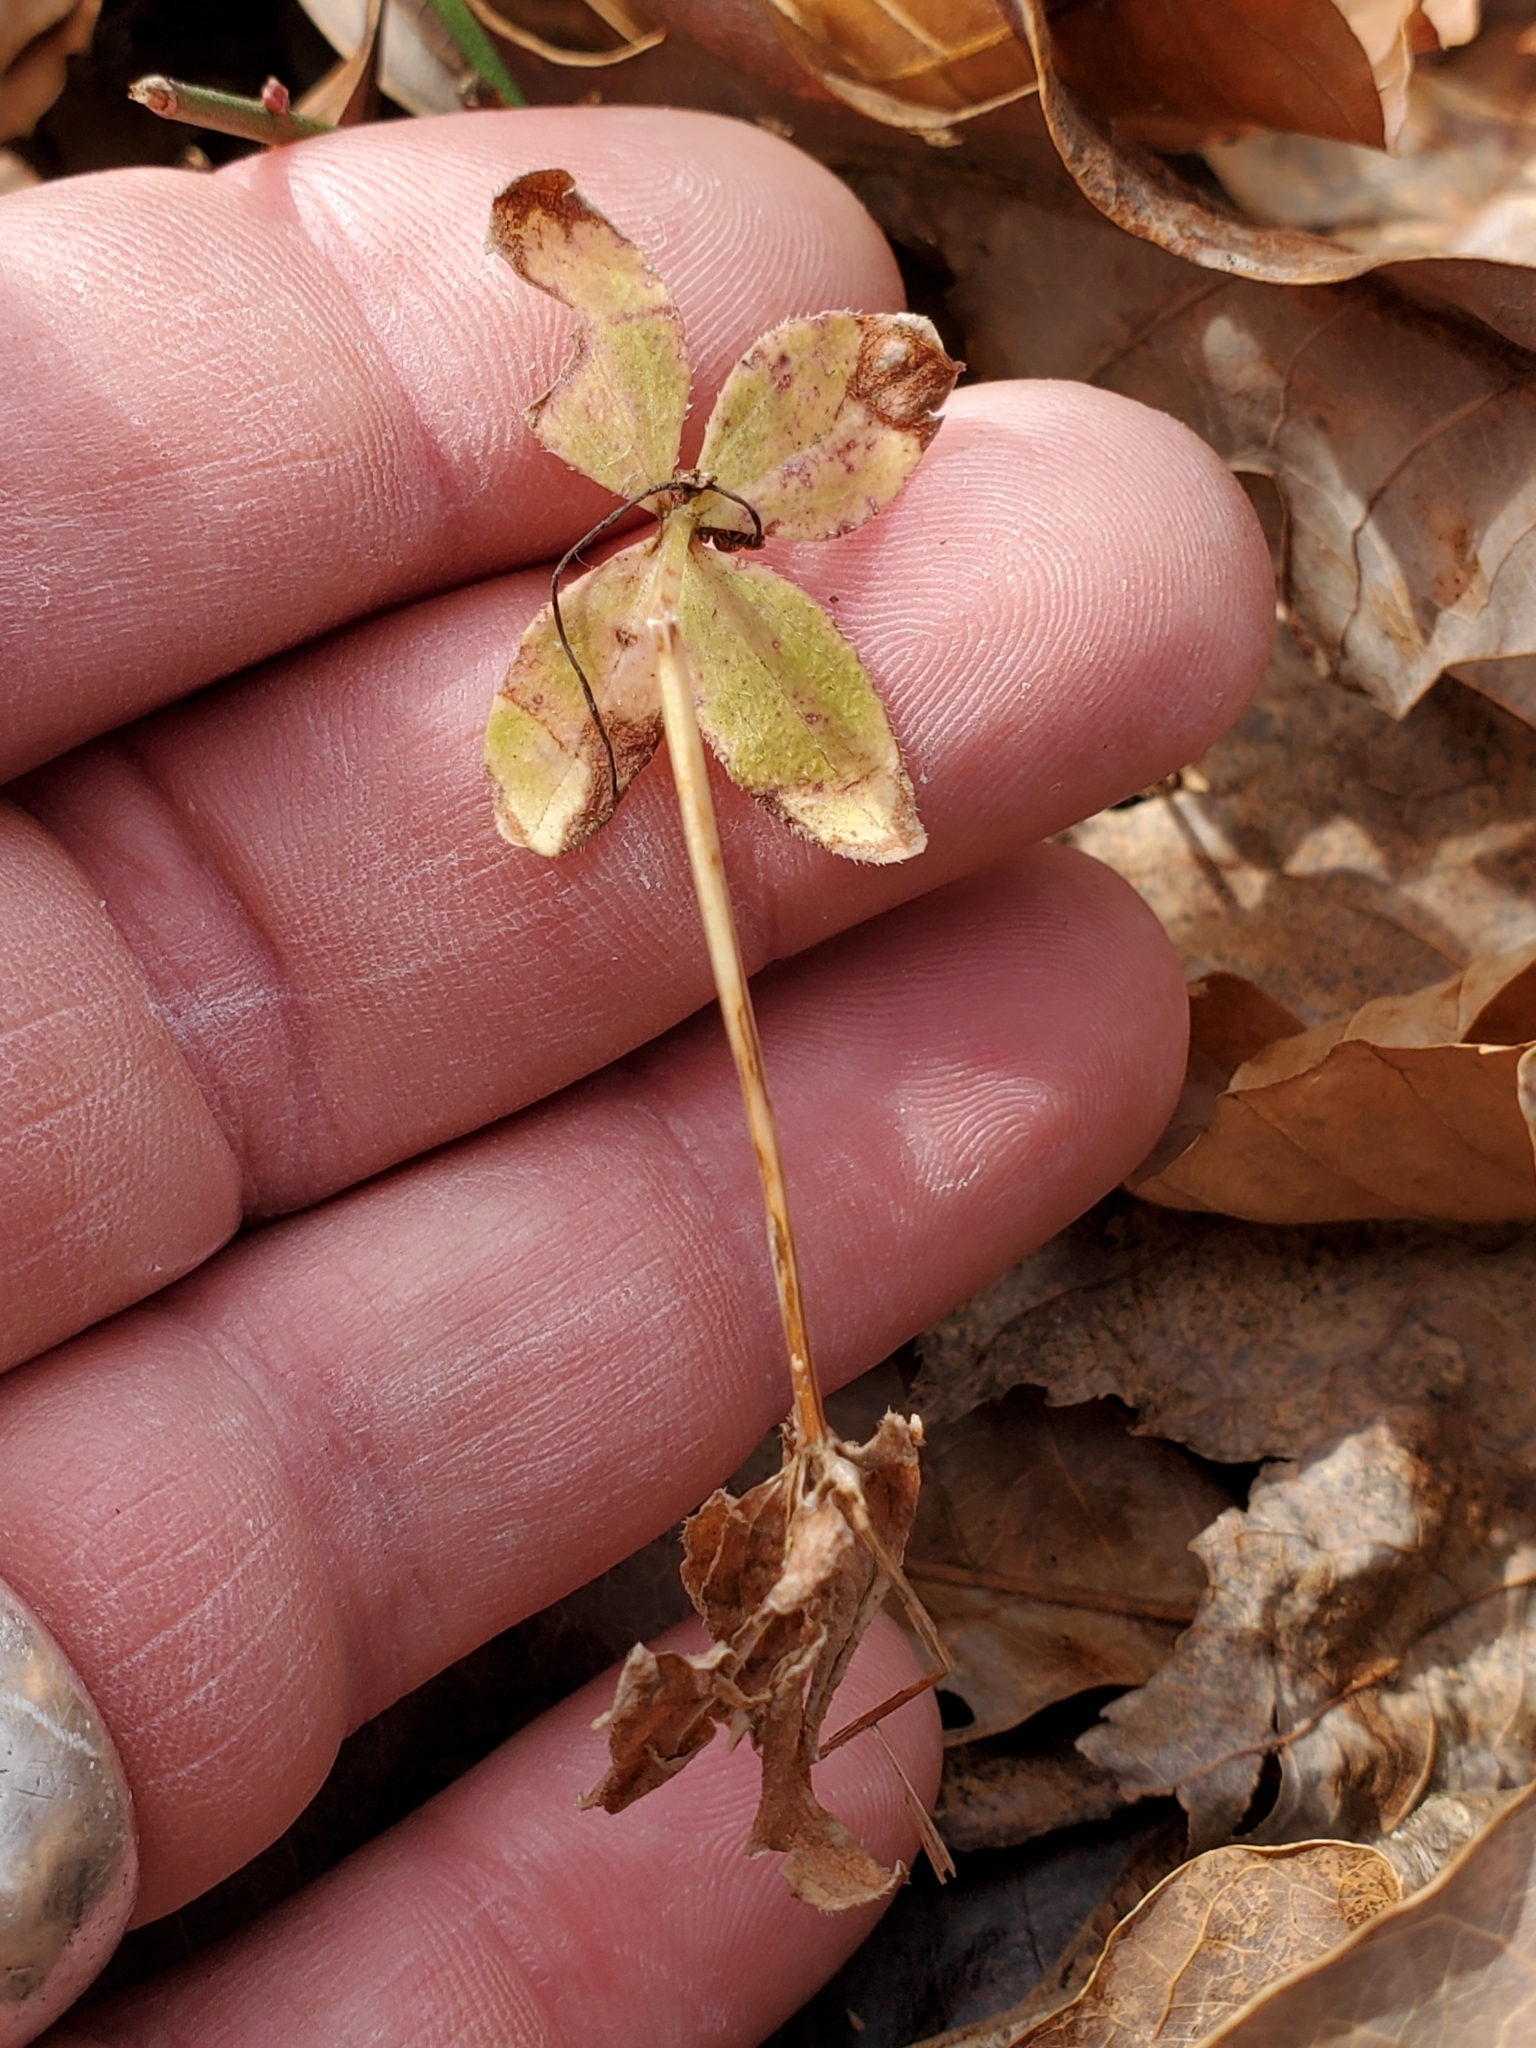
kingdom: Plantae
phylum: Tracheophyta
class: Magnoliopsida
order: Gentianales
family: Rubiaceae
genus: Galium
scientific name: Galium circaezans
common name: Forest bedstraw
